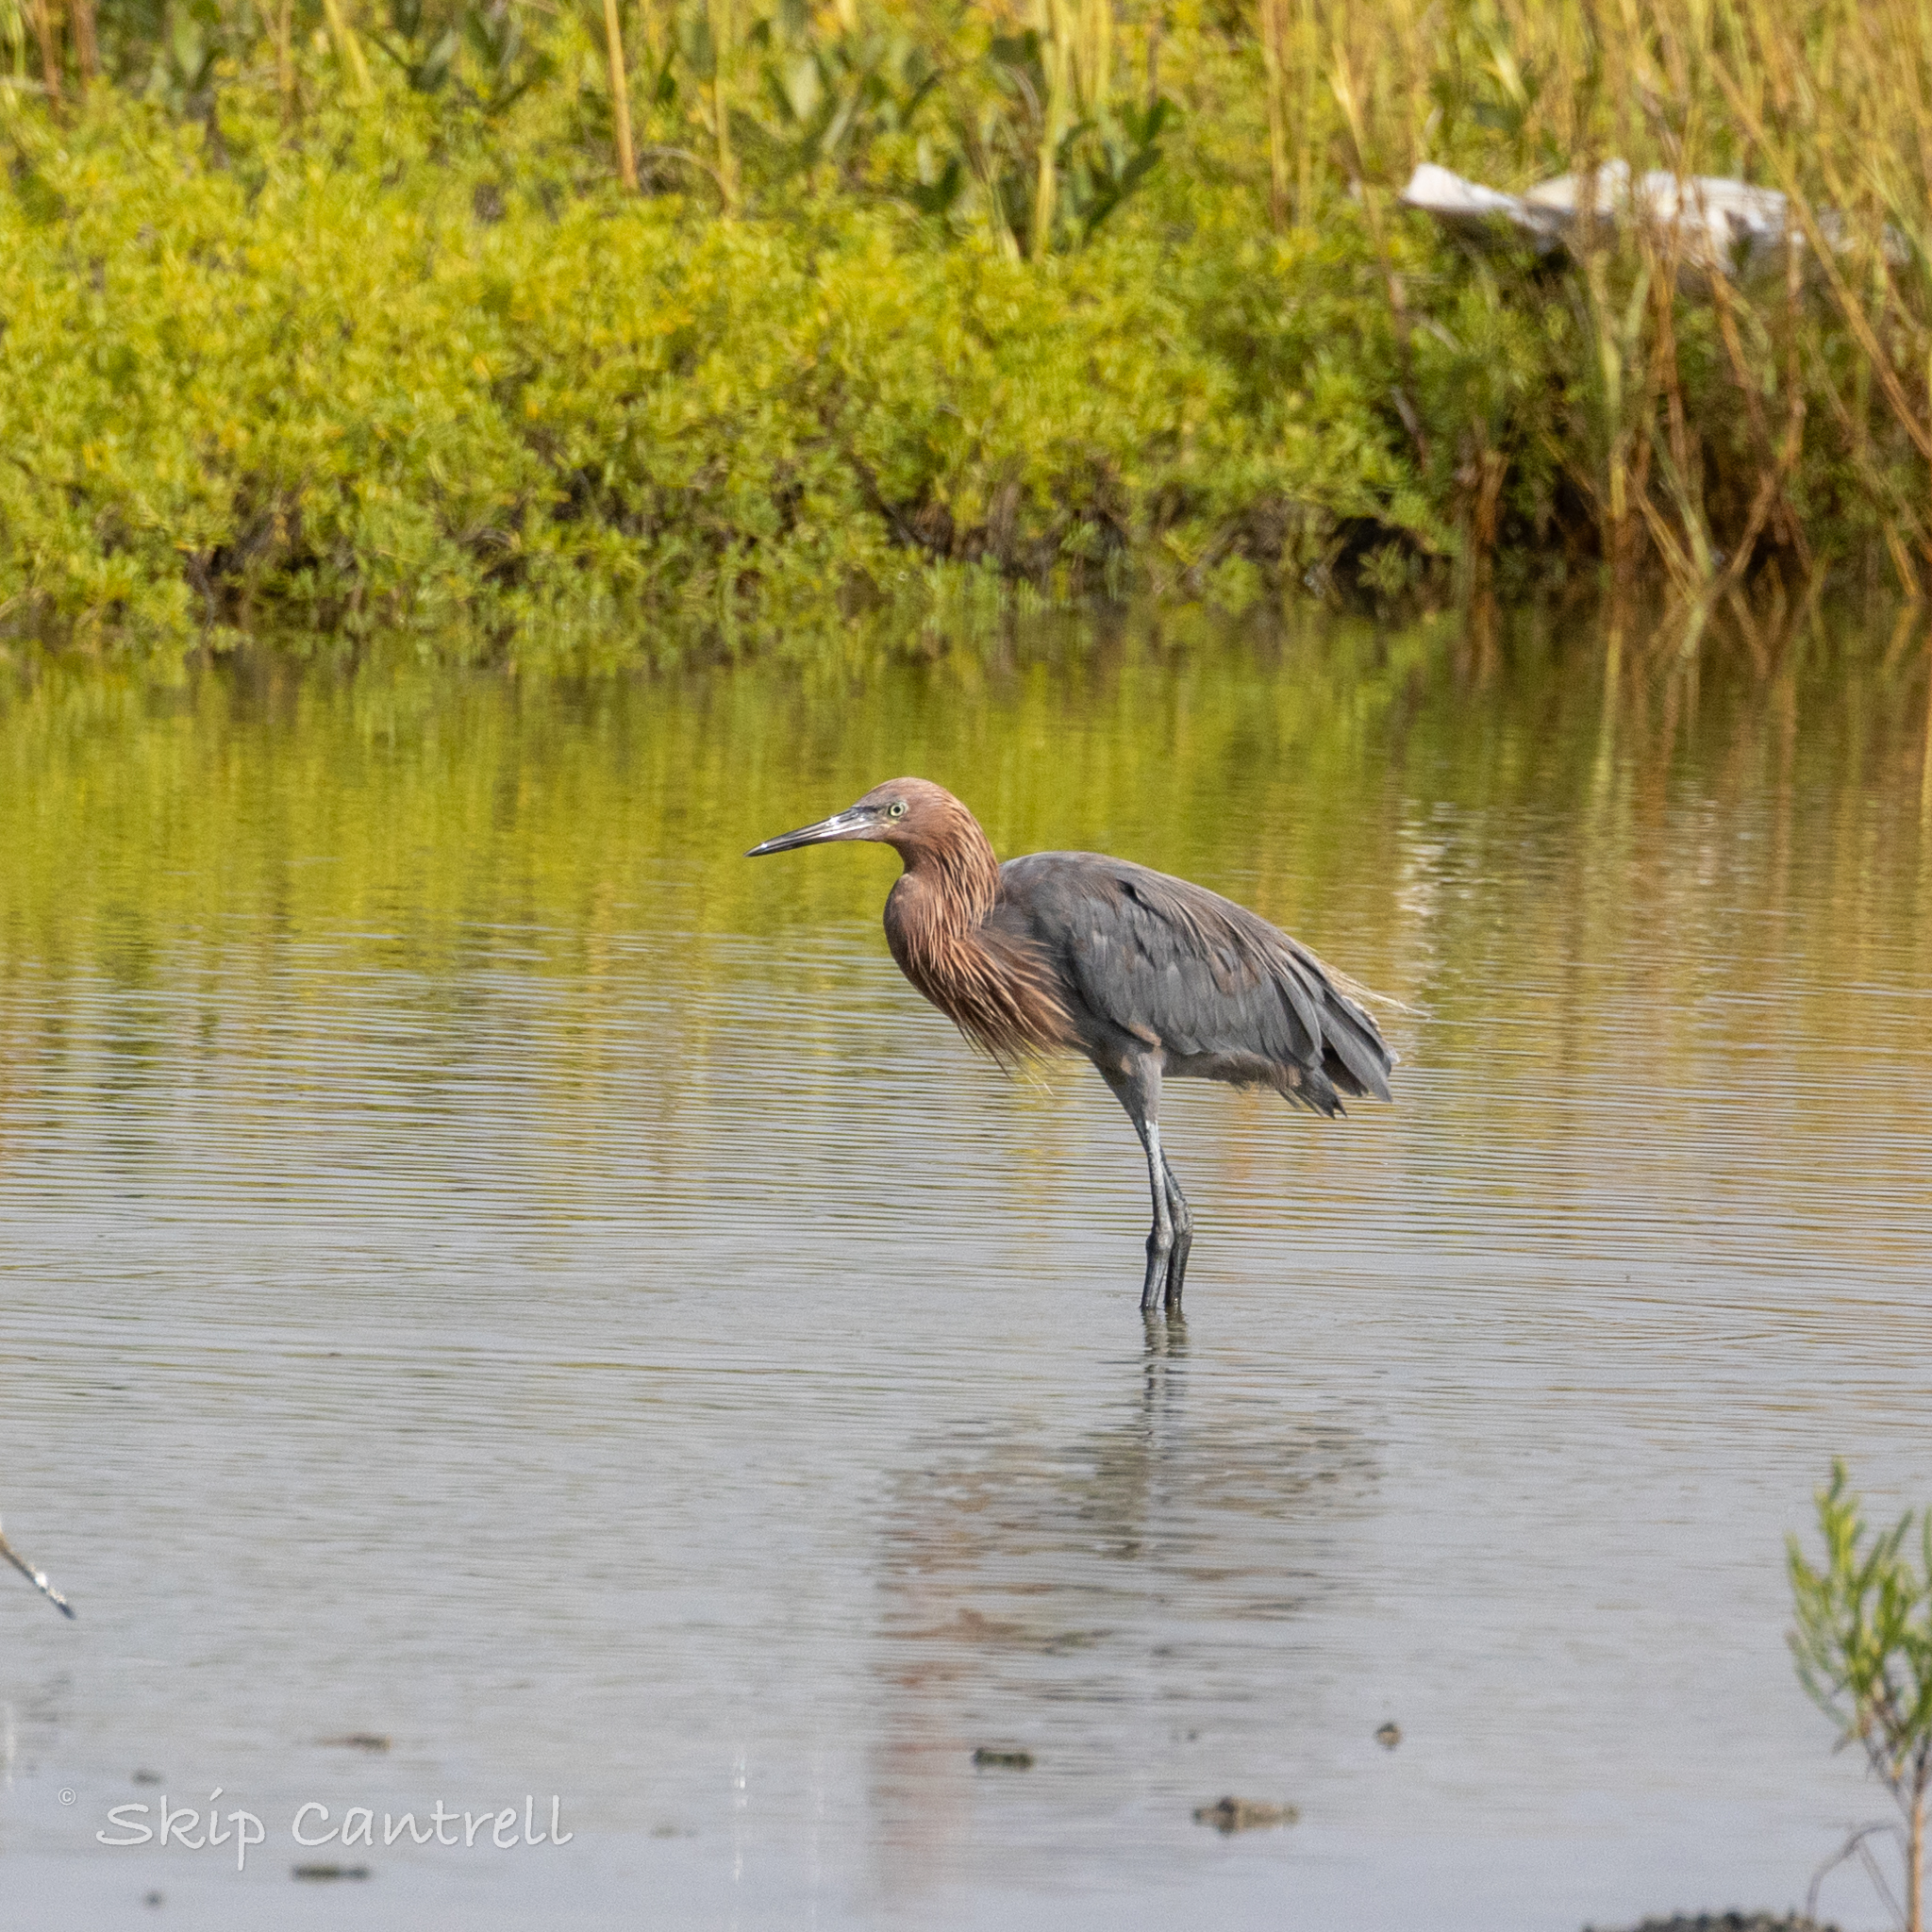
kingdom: Animalia
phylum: Chordata
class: Aves
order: Pelecaniformes
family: Ardeidae
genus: Egretta
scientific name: Egretta rufescens
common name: Reddish egret
